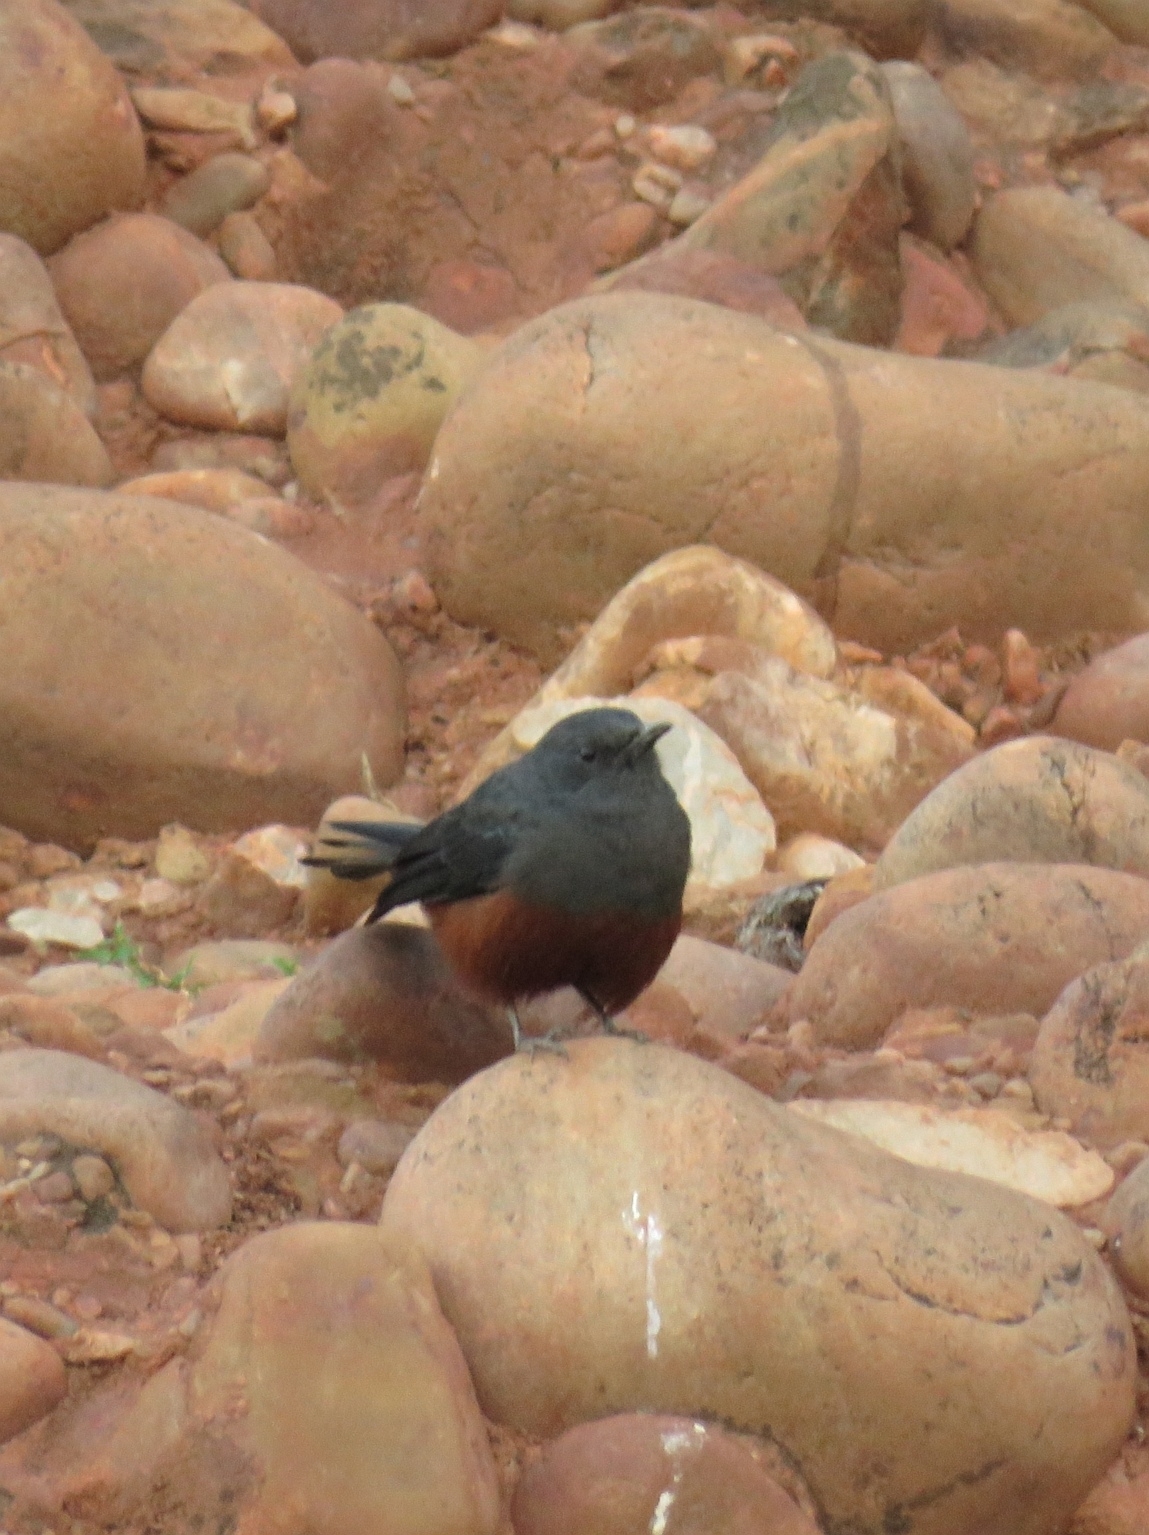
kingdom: Animalia
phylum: Chordata
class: Aves
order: Passeriformes
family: Muscicapidae
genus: Thamnolaea
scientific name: Thamnolaea cinnamomeiventris
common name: Mocking cliff chat
